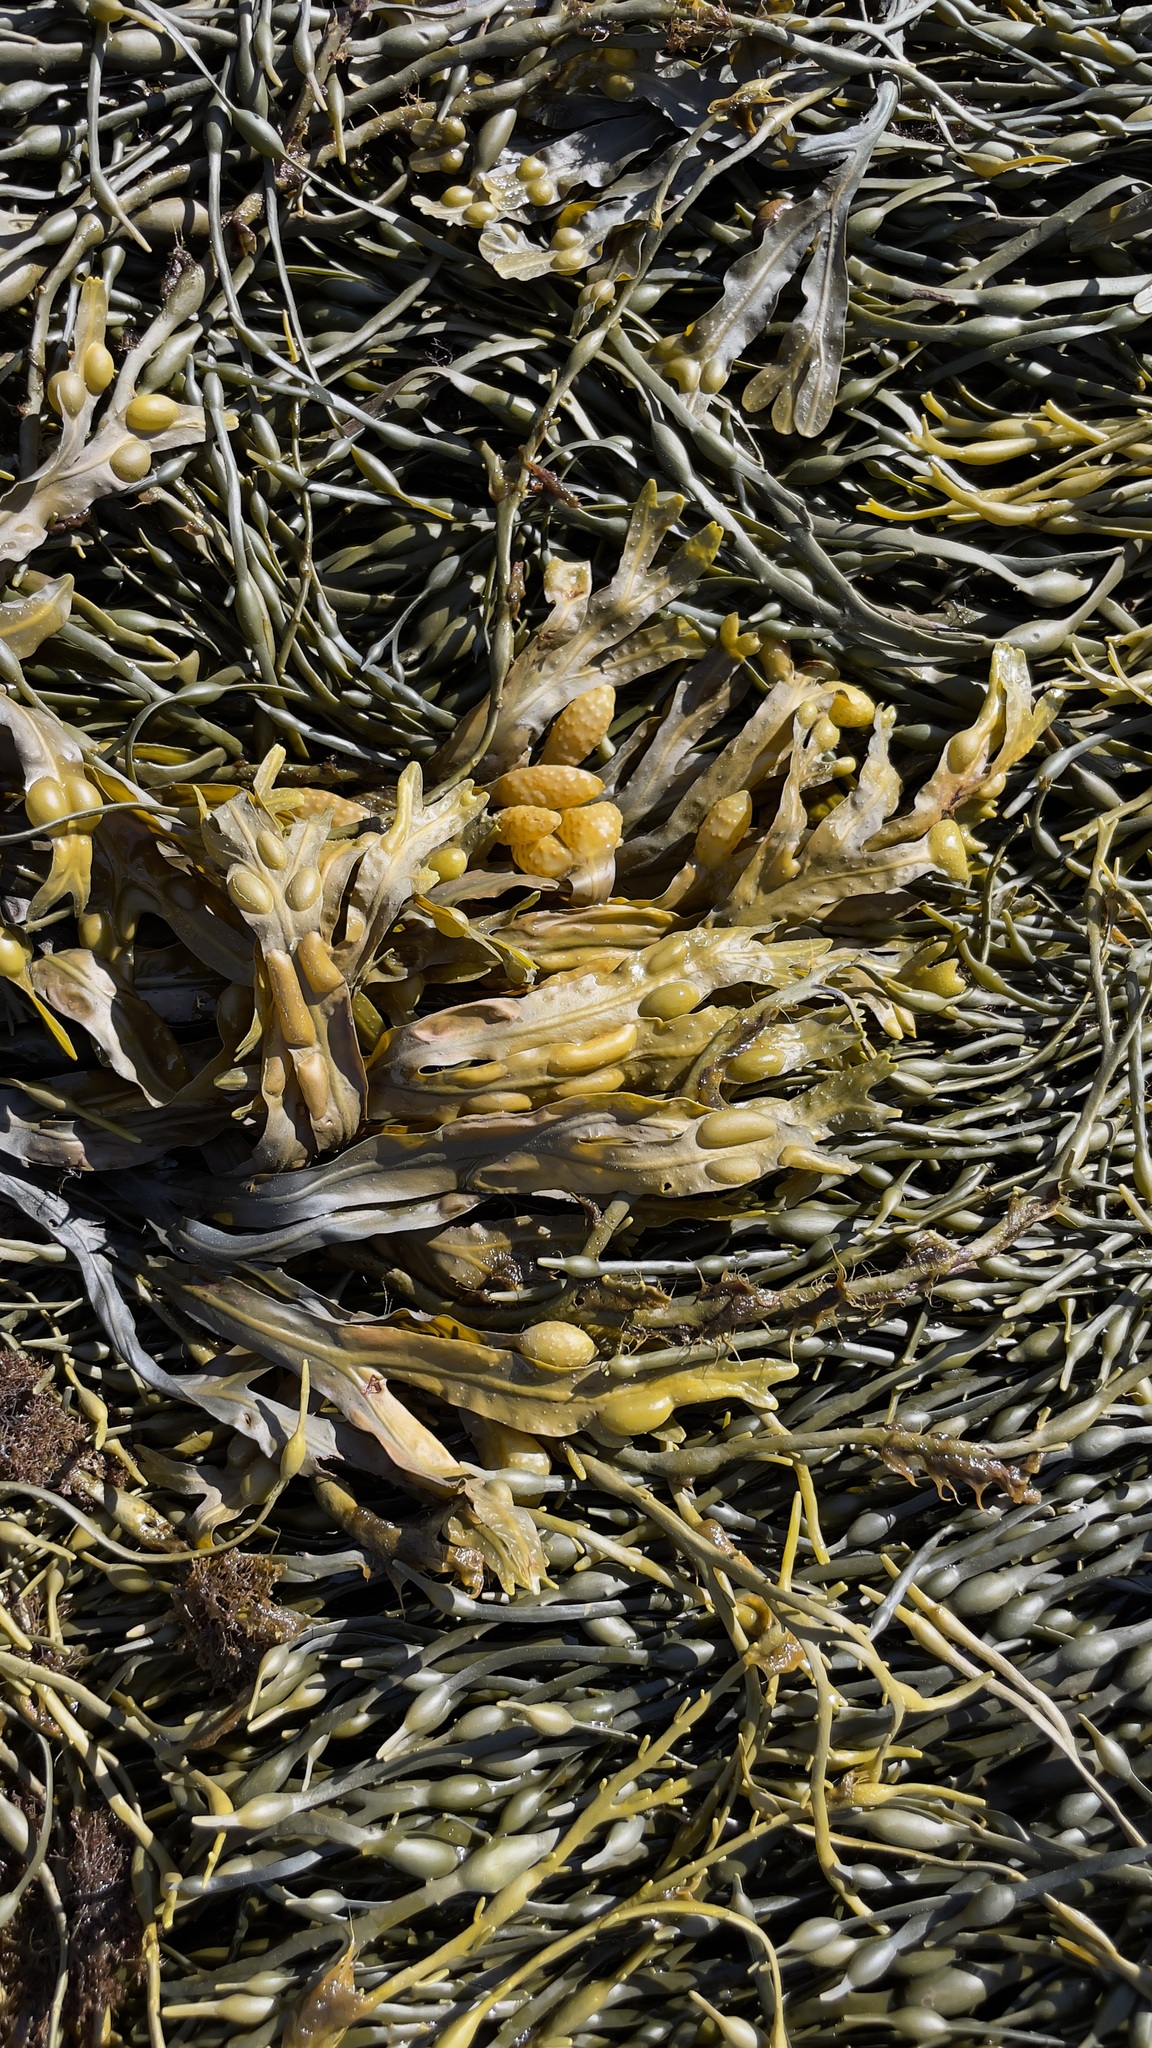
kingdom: Chromista
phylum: Ochrophyta
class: Phaeophyceae
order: Fucales
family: Fucaceae
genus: Fucus
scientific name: Fucus vesiculosus
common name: Bladder wrack
